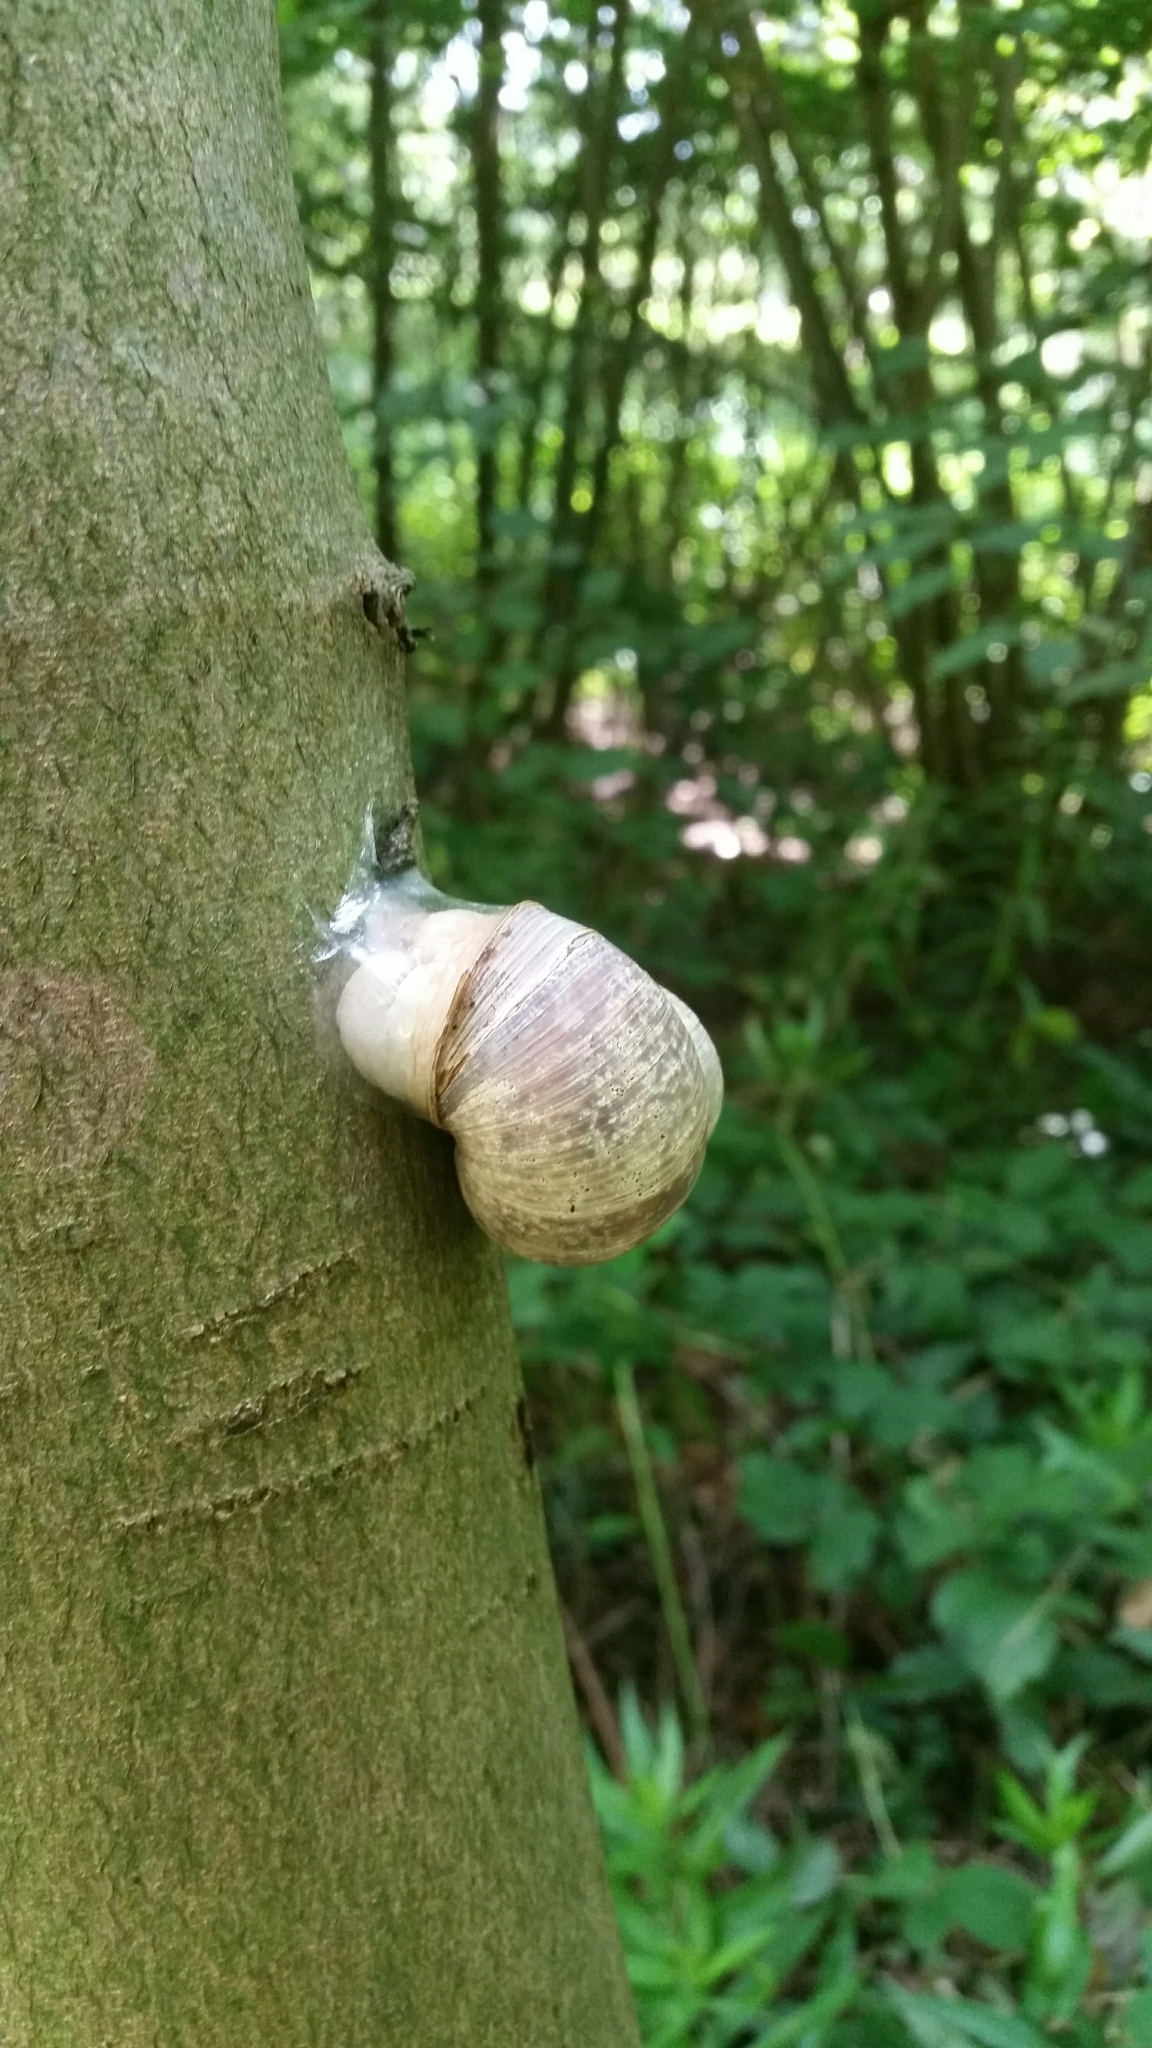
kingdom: Animalia
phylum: Mollusca
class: Gastropoda
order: Stylommatophora
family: Helicidae
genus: Helix
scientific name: Helix pomatia
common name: Roman snail
